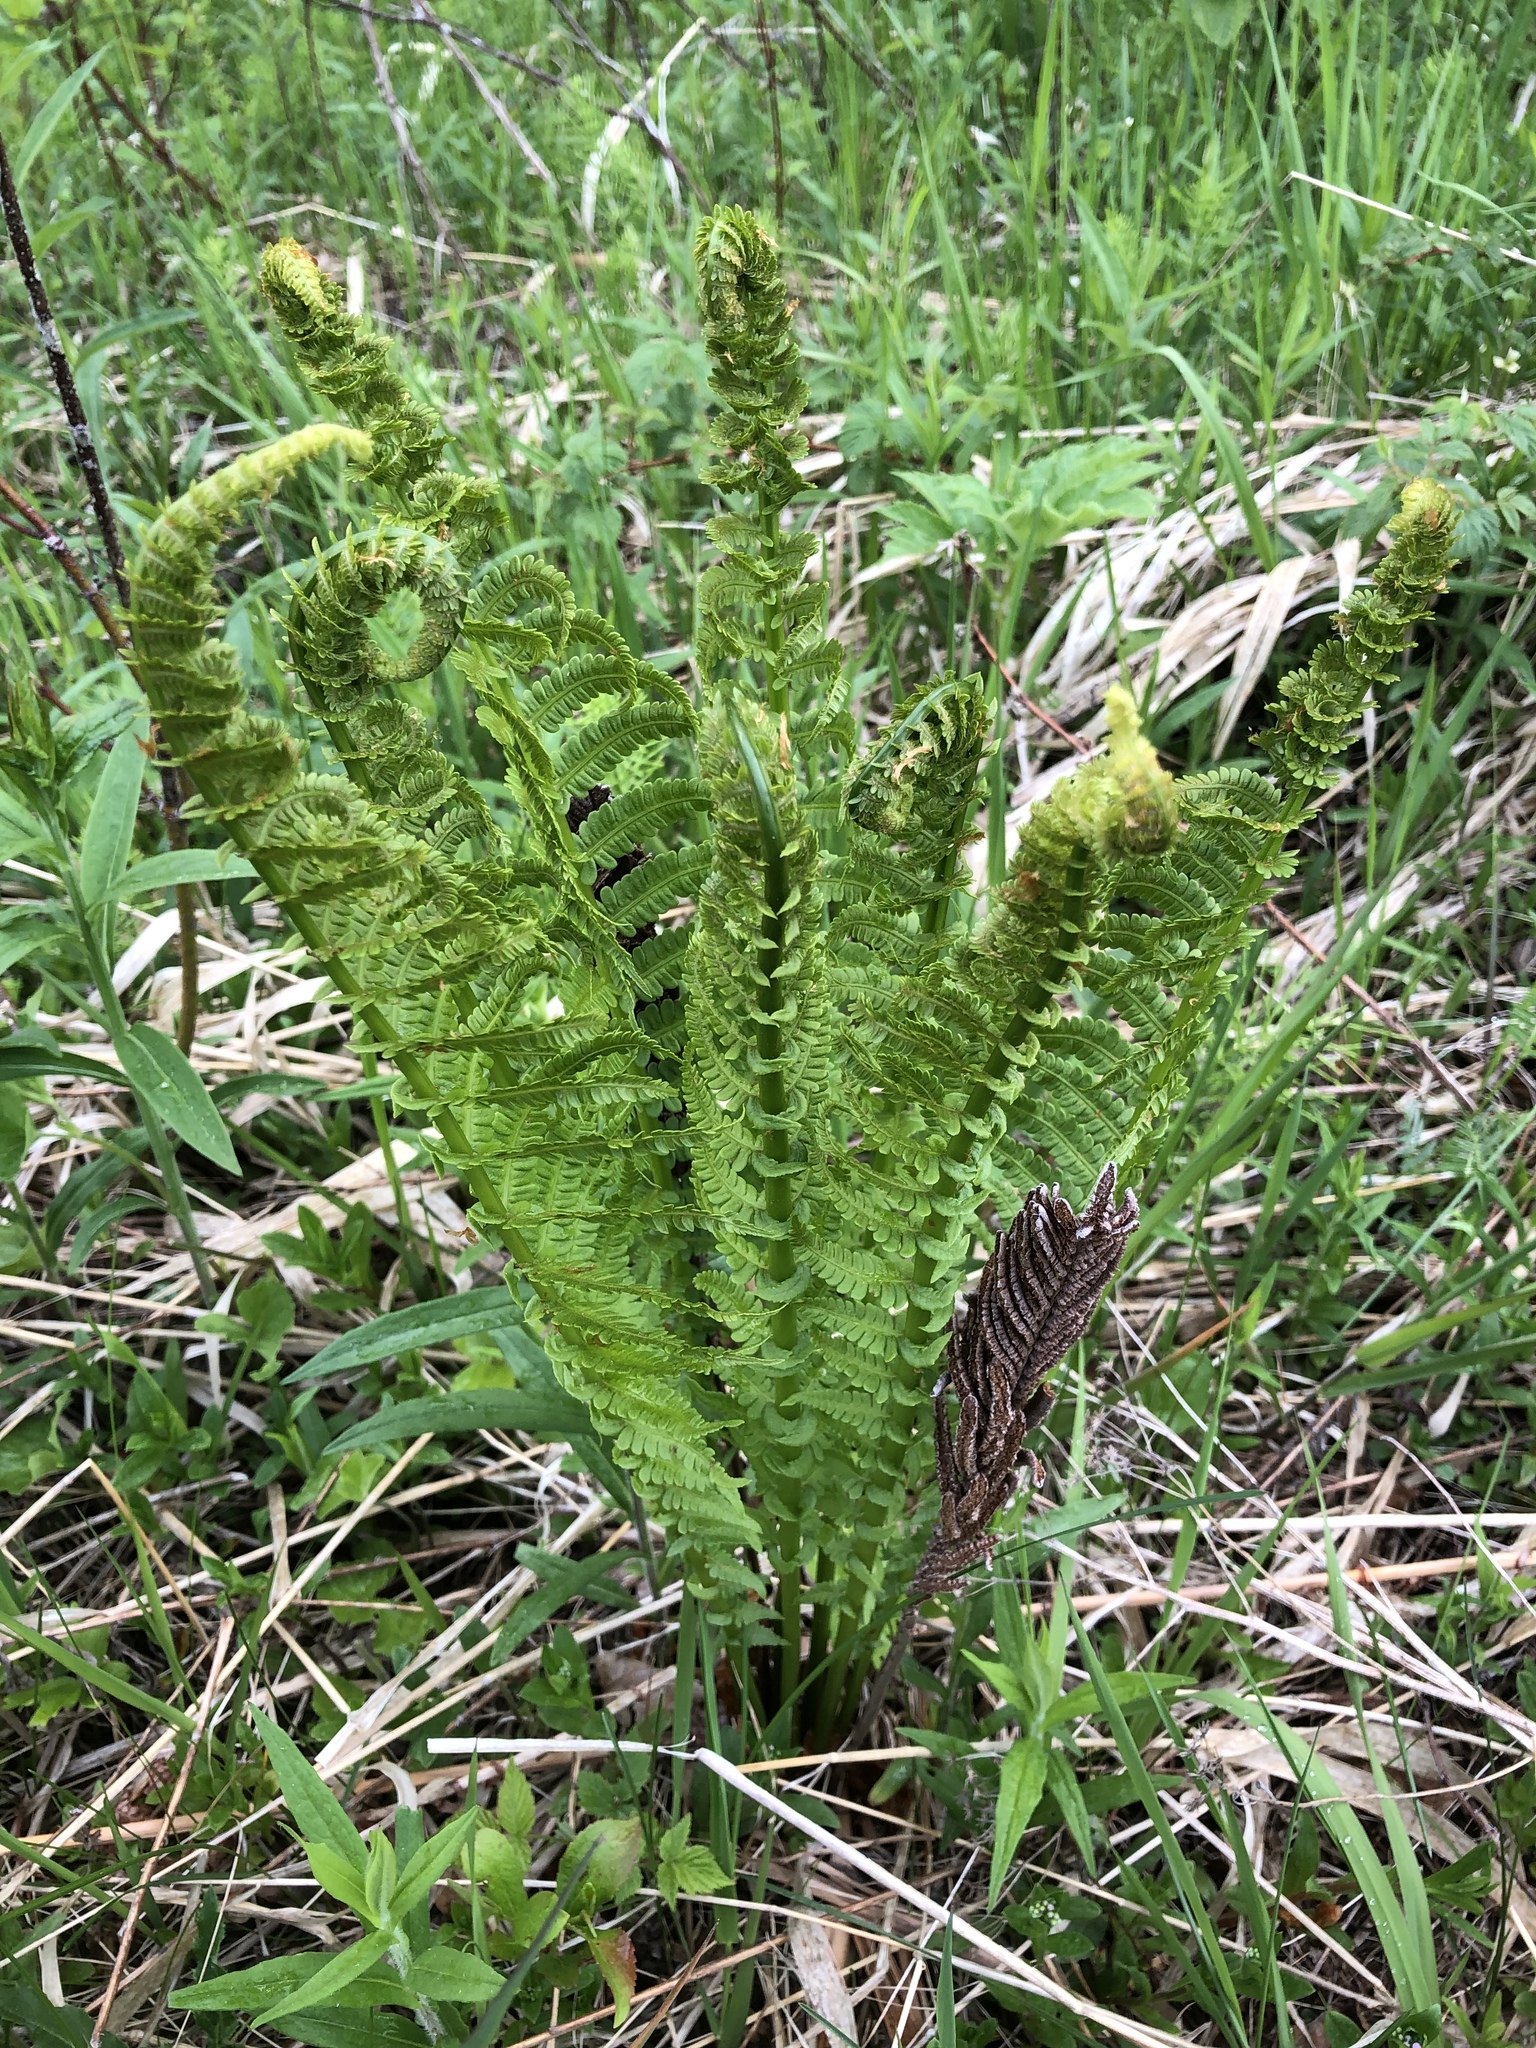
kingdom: Plantae
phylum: Tracheophyta
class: Polypodiopsida
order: Polypodiales
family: Onocleaceae
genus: Matteuccia
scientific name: Matteuccia struthiopteris
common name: Ostrich fern
